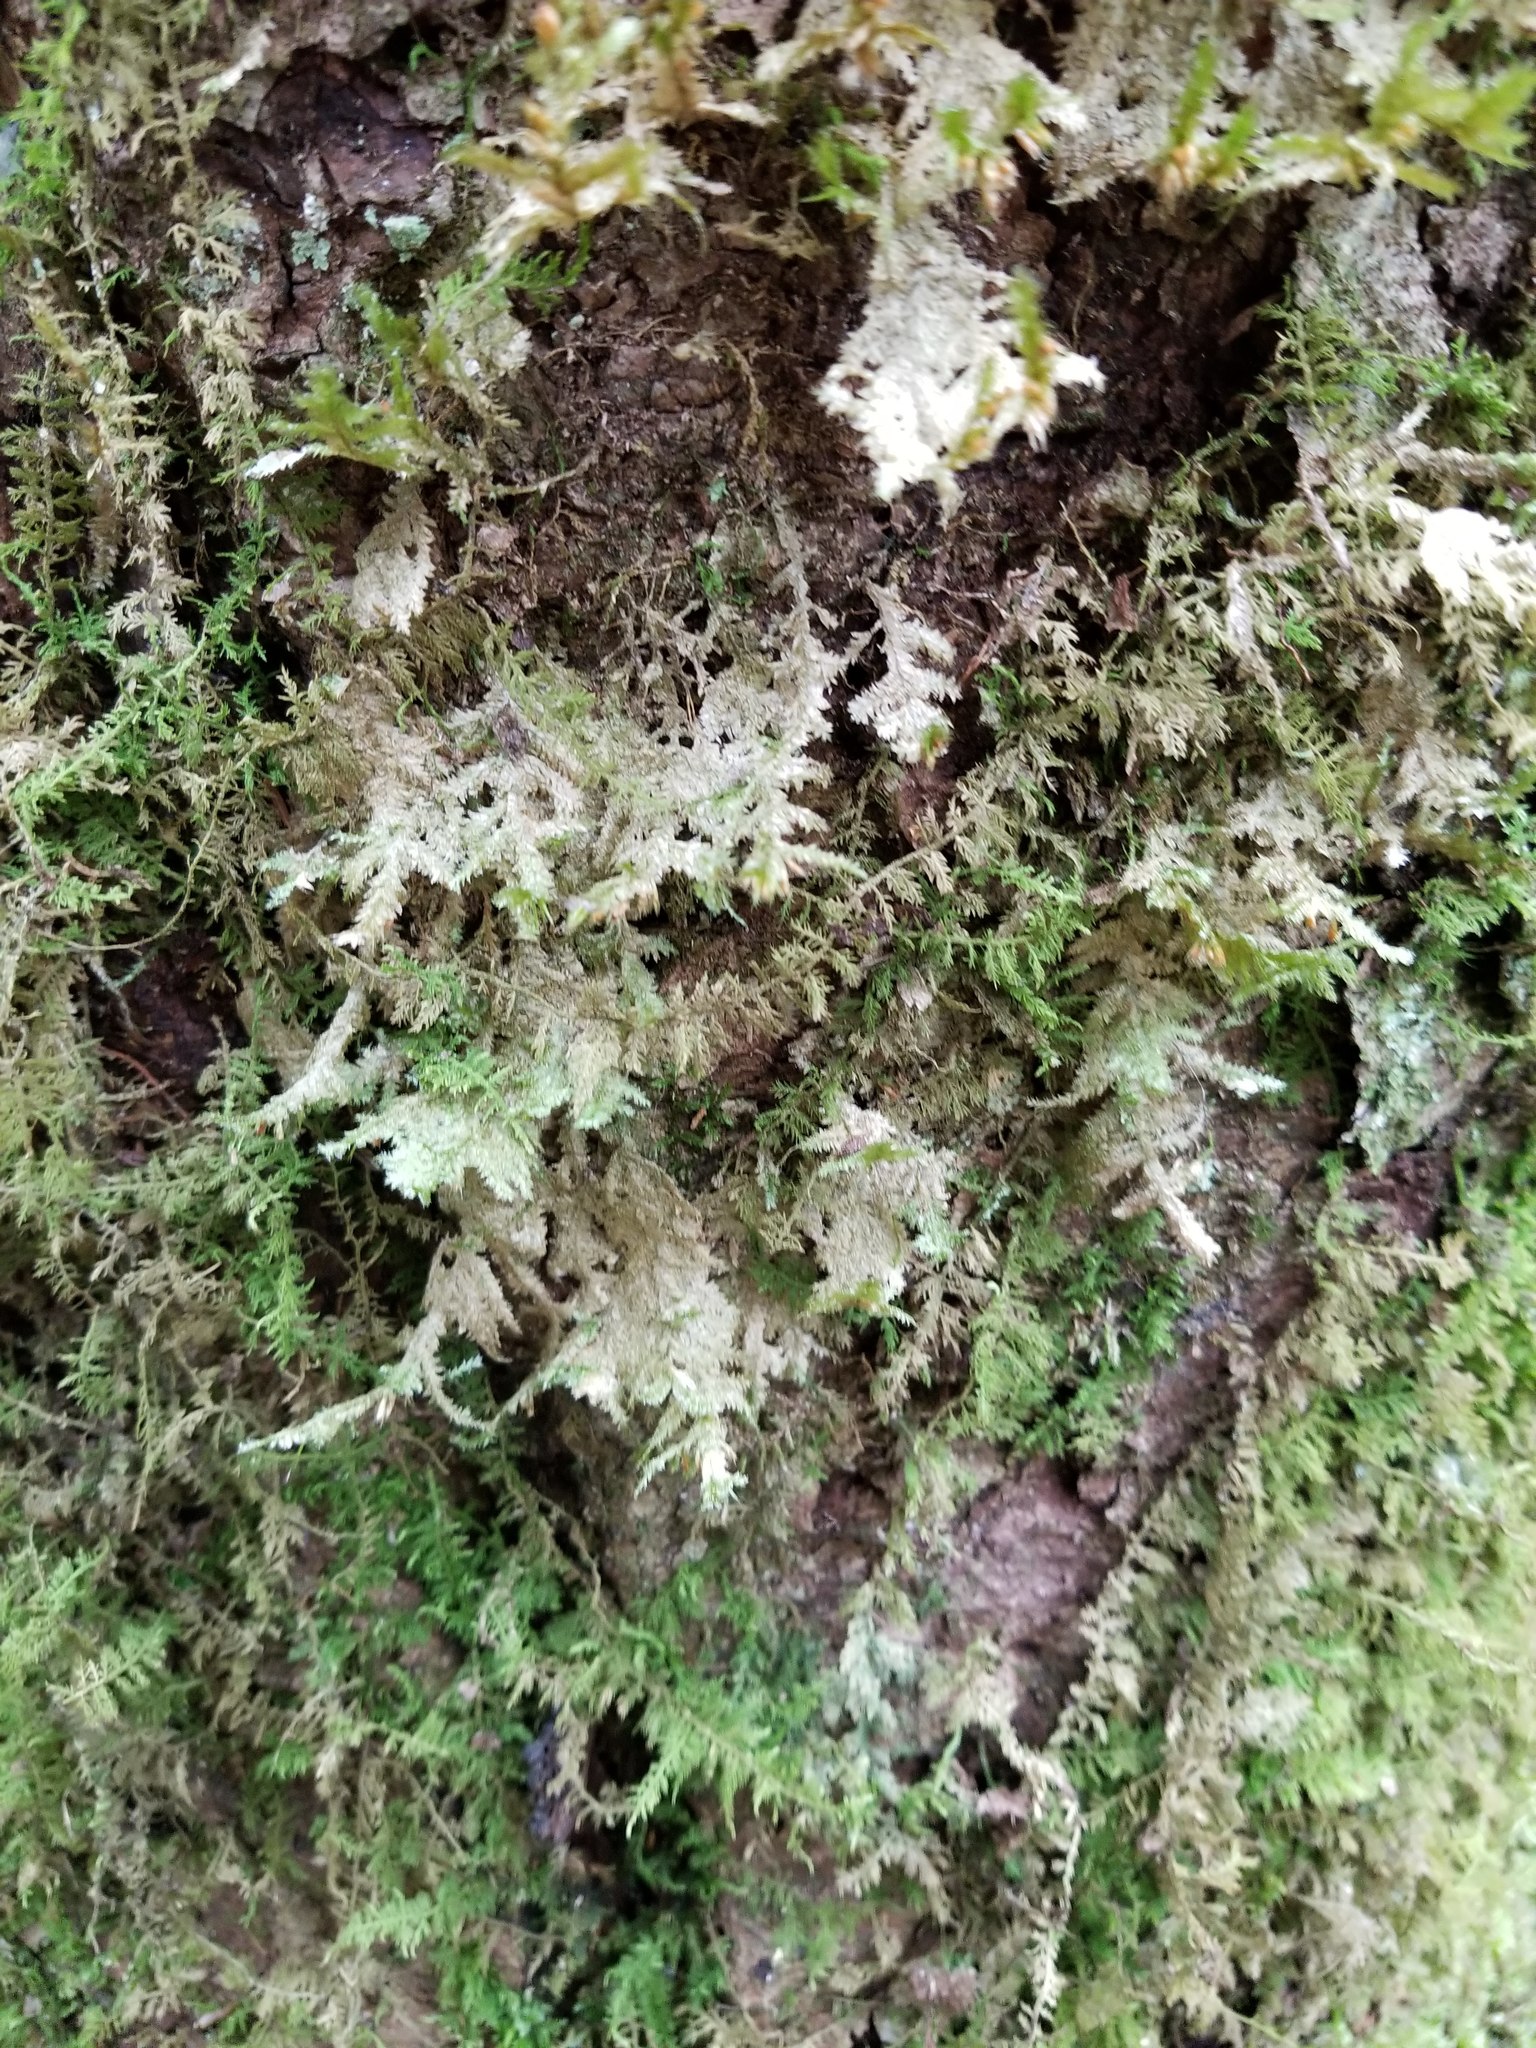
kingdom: Plantae
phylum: Bryophyta
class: Bryopsida
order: Hypnales
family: Neckeraceae
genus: Neckera
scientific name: Neckera pennata
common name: Feathery neckera
